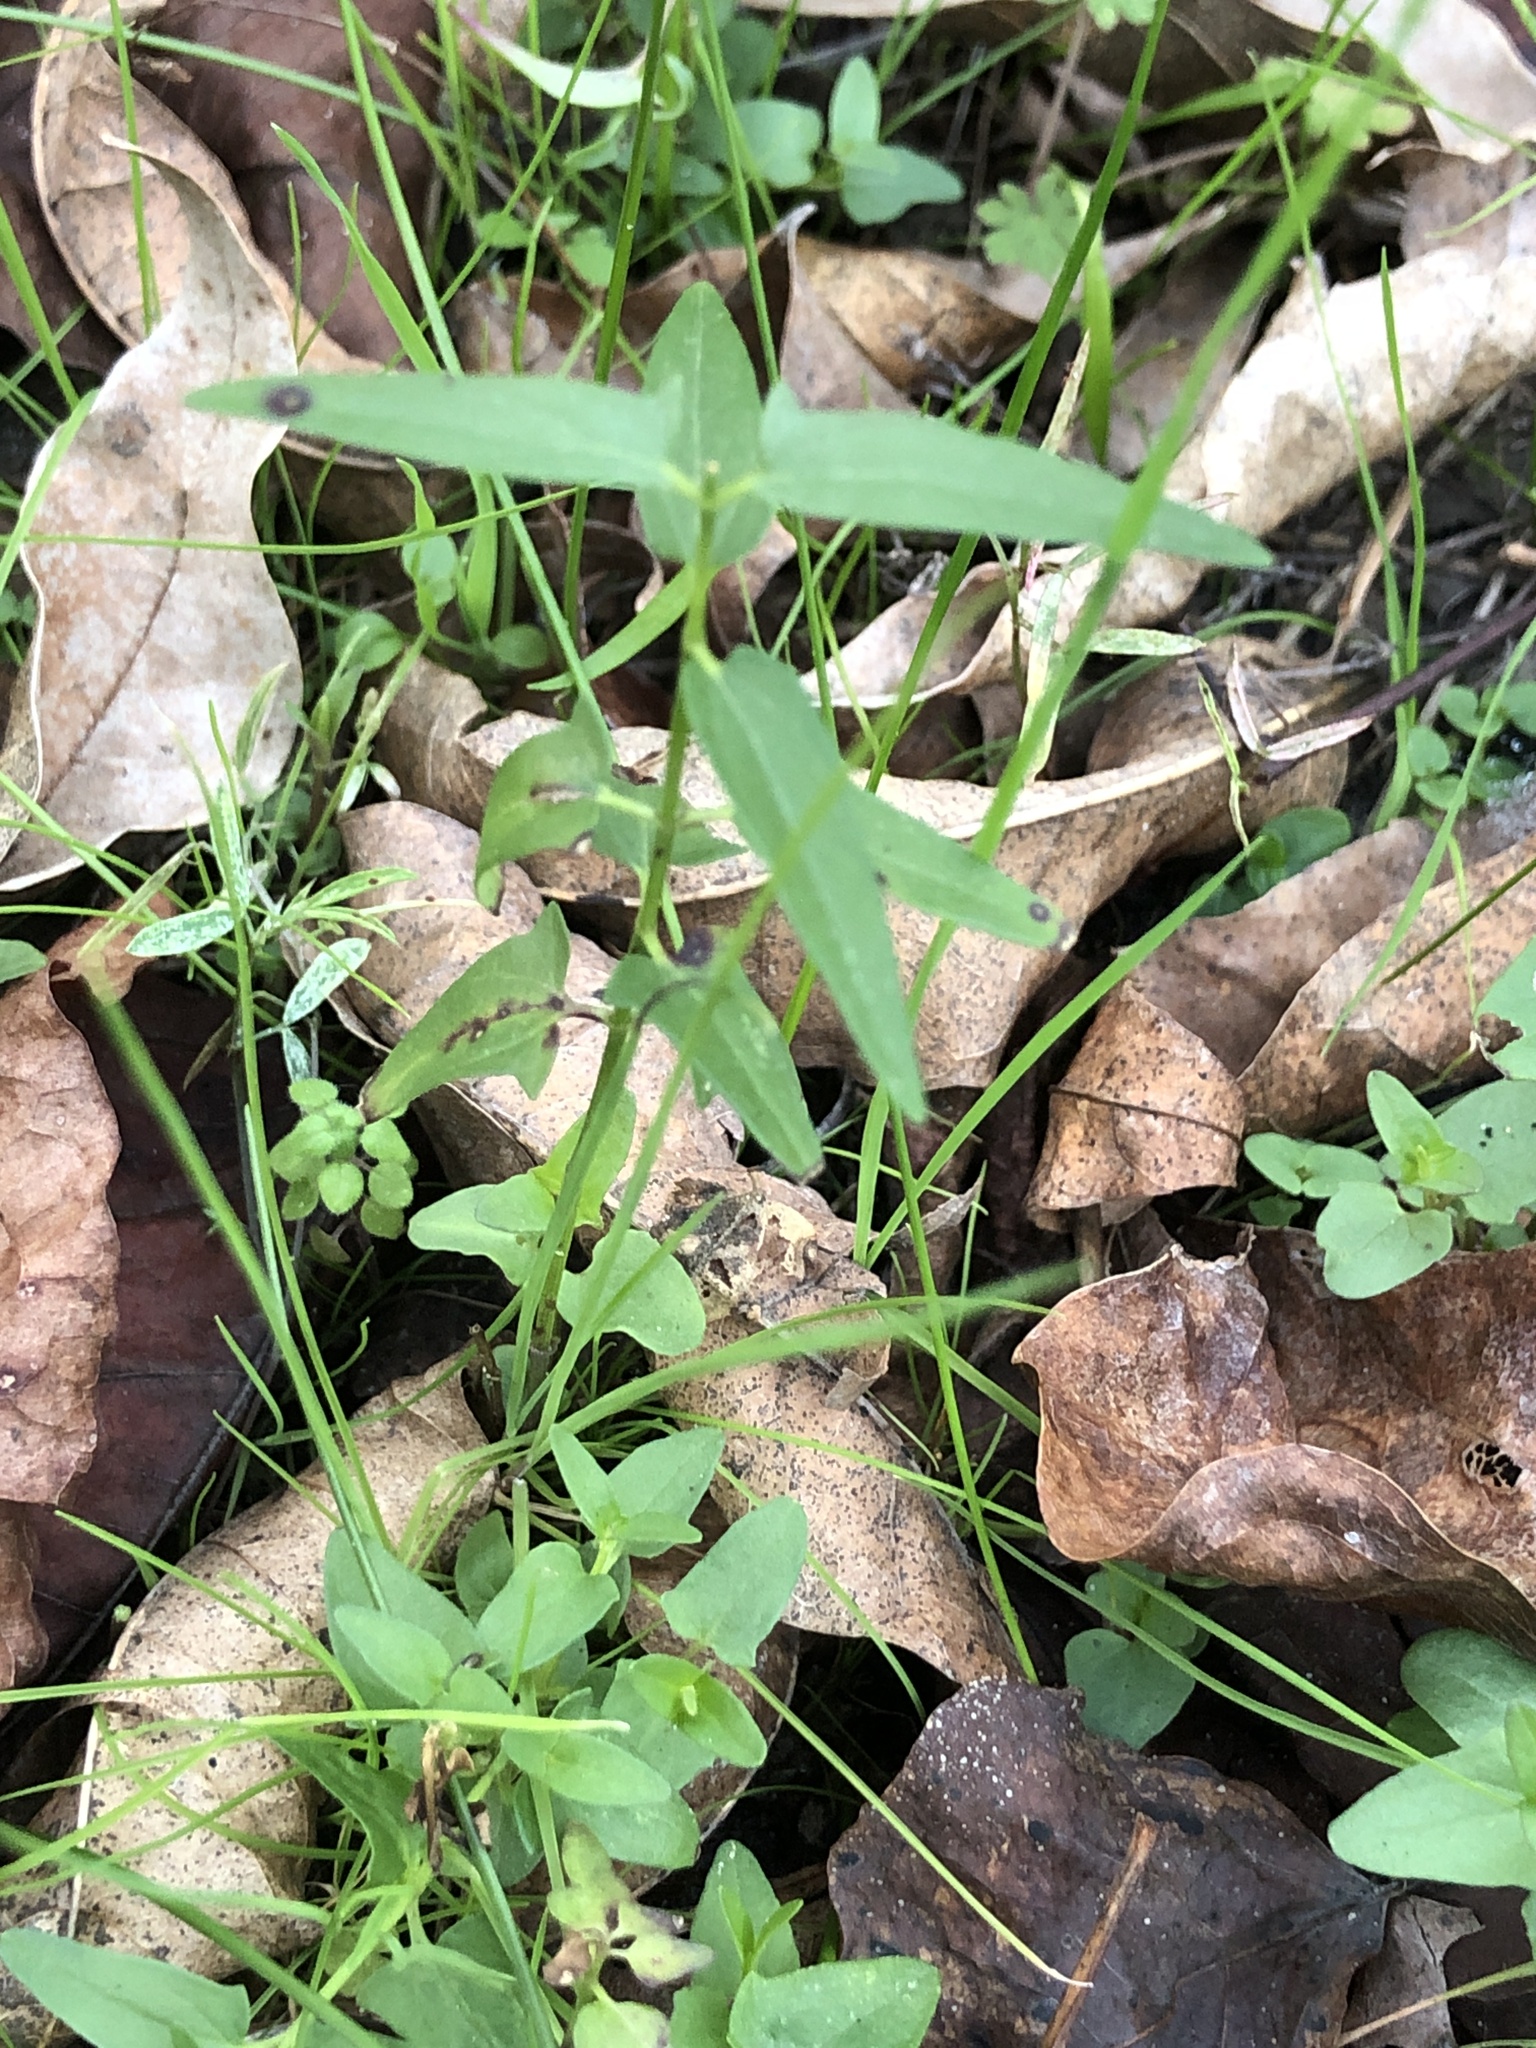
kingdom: Plantae
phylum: Tracheophyta
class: Magnoliopsida
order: Lamiales
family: Lamiaceae
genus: Scutellaria
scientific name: Scutellaria racemosa
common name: South american skullcap
